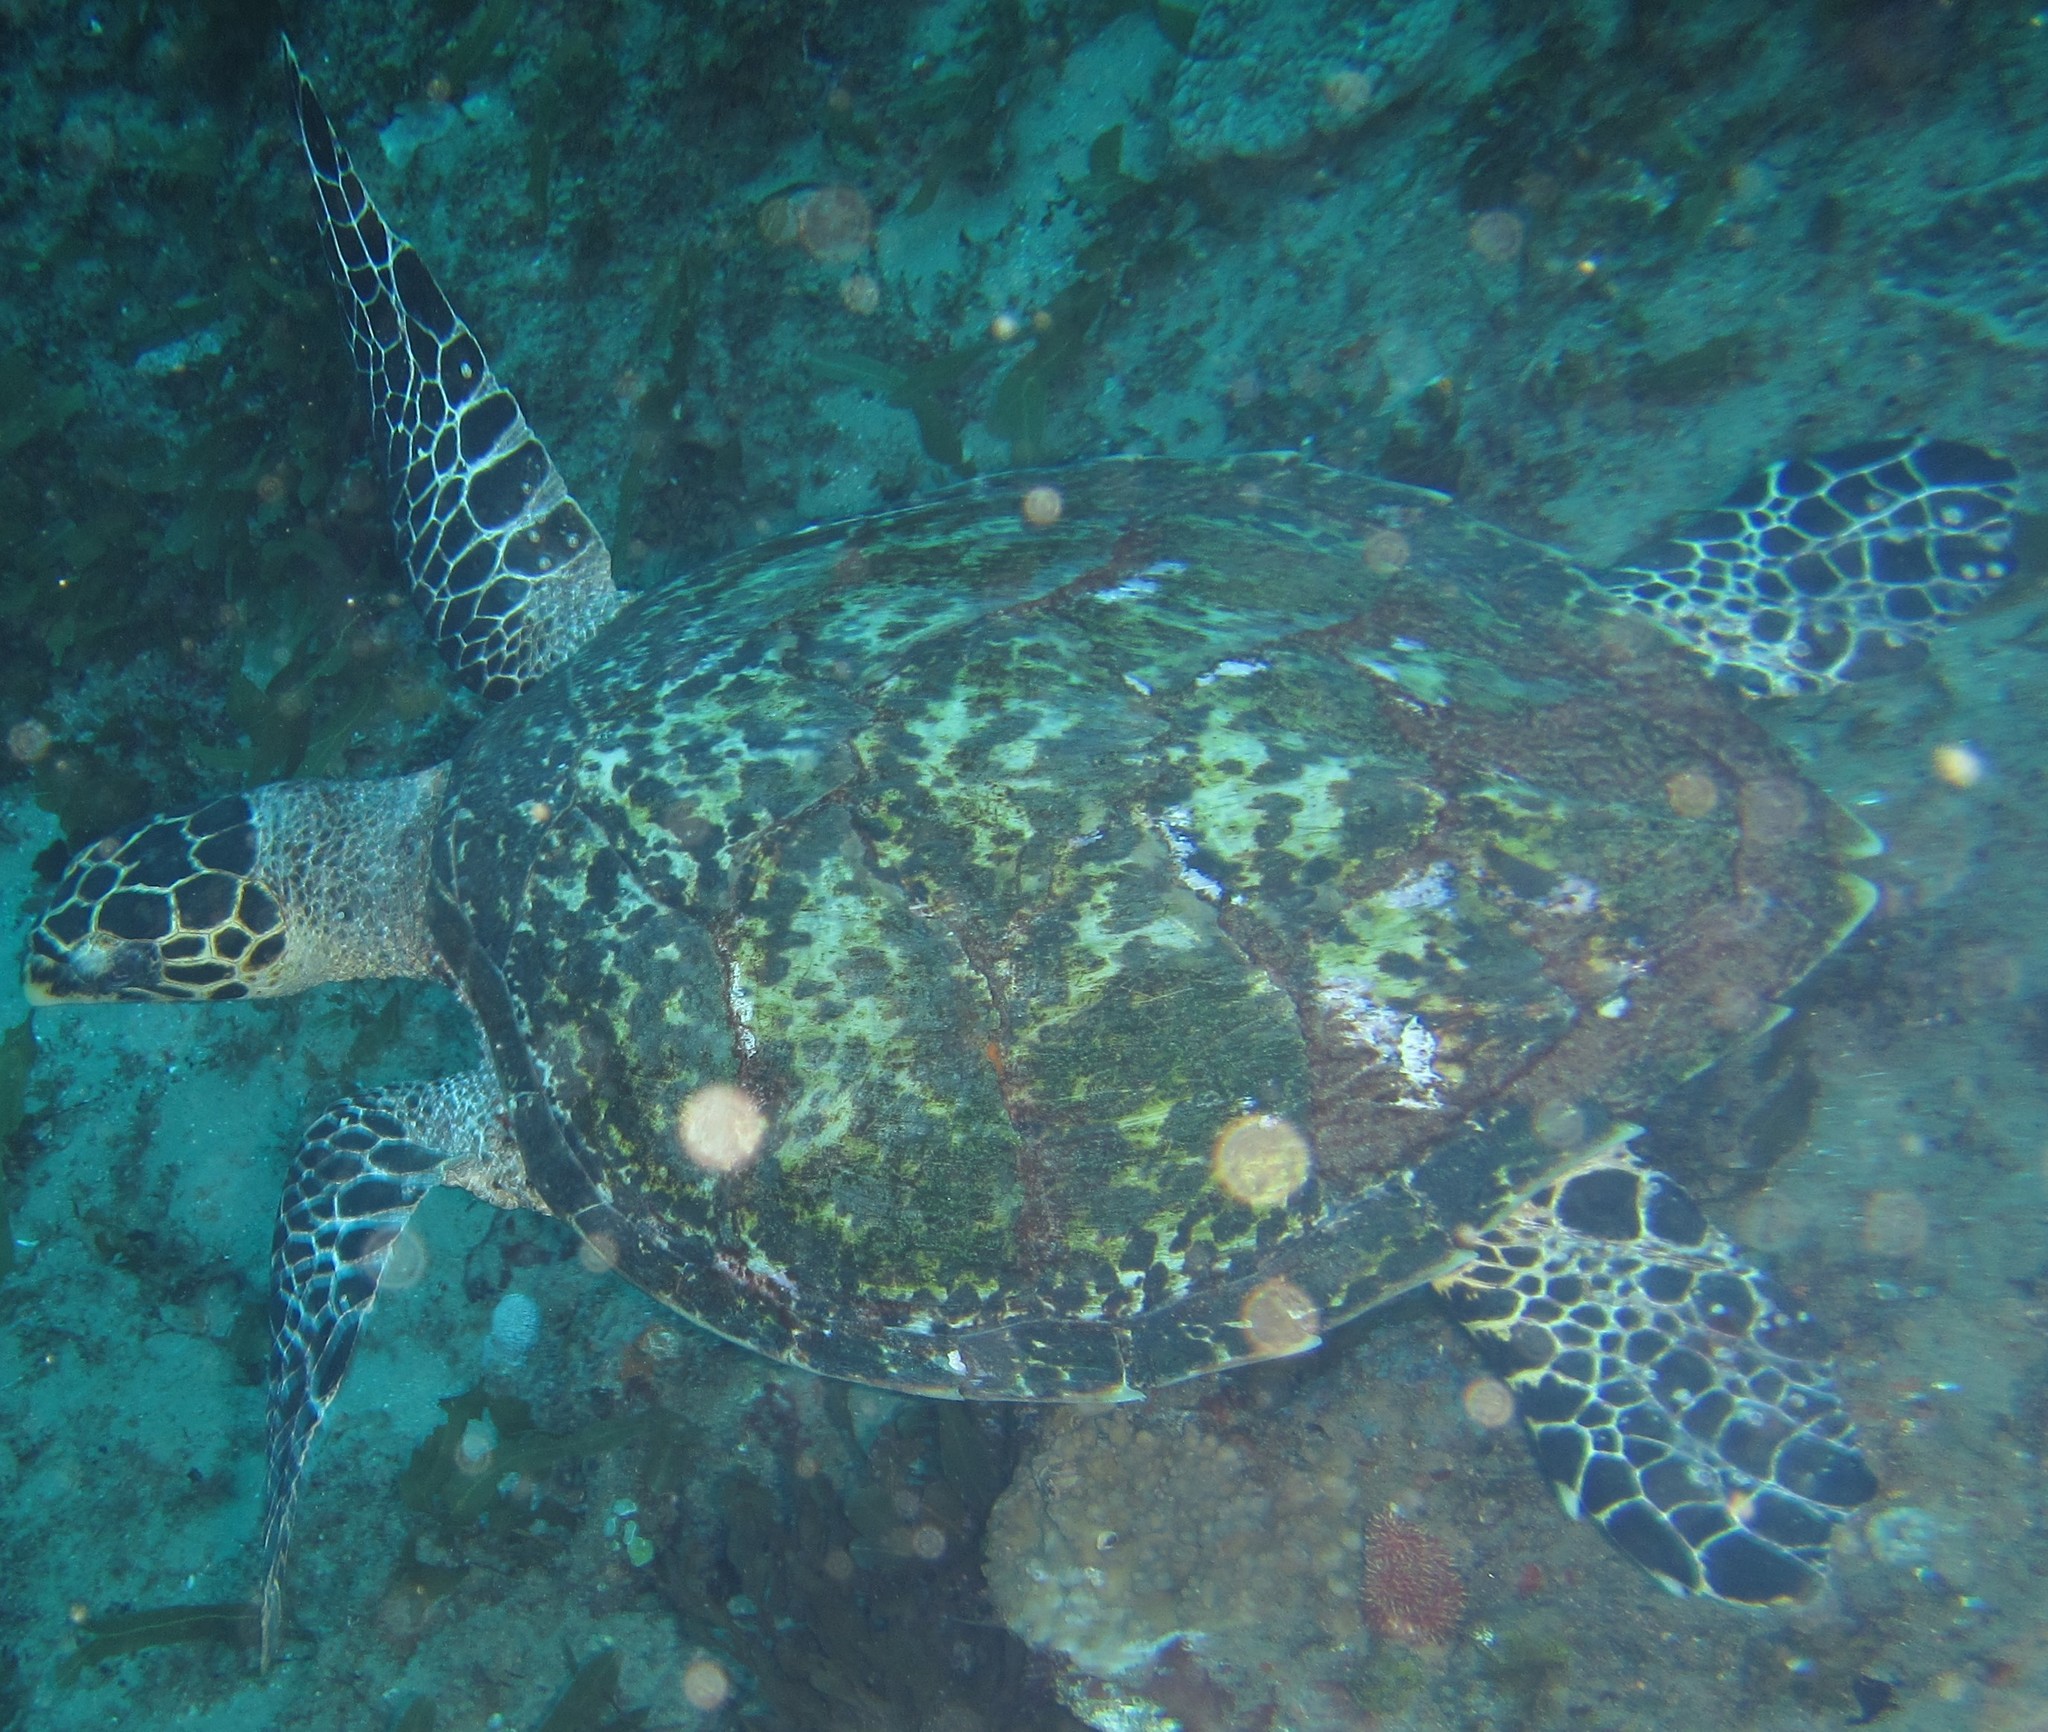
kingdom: Animalia
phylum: Chordata
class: Testudines
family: Cheloniidae
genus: Eretmochelys
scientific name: Eretmochelys imbricata
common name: Hawksbill turtle
